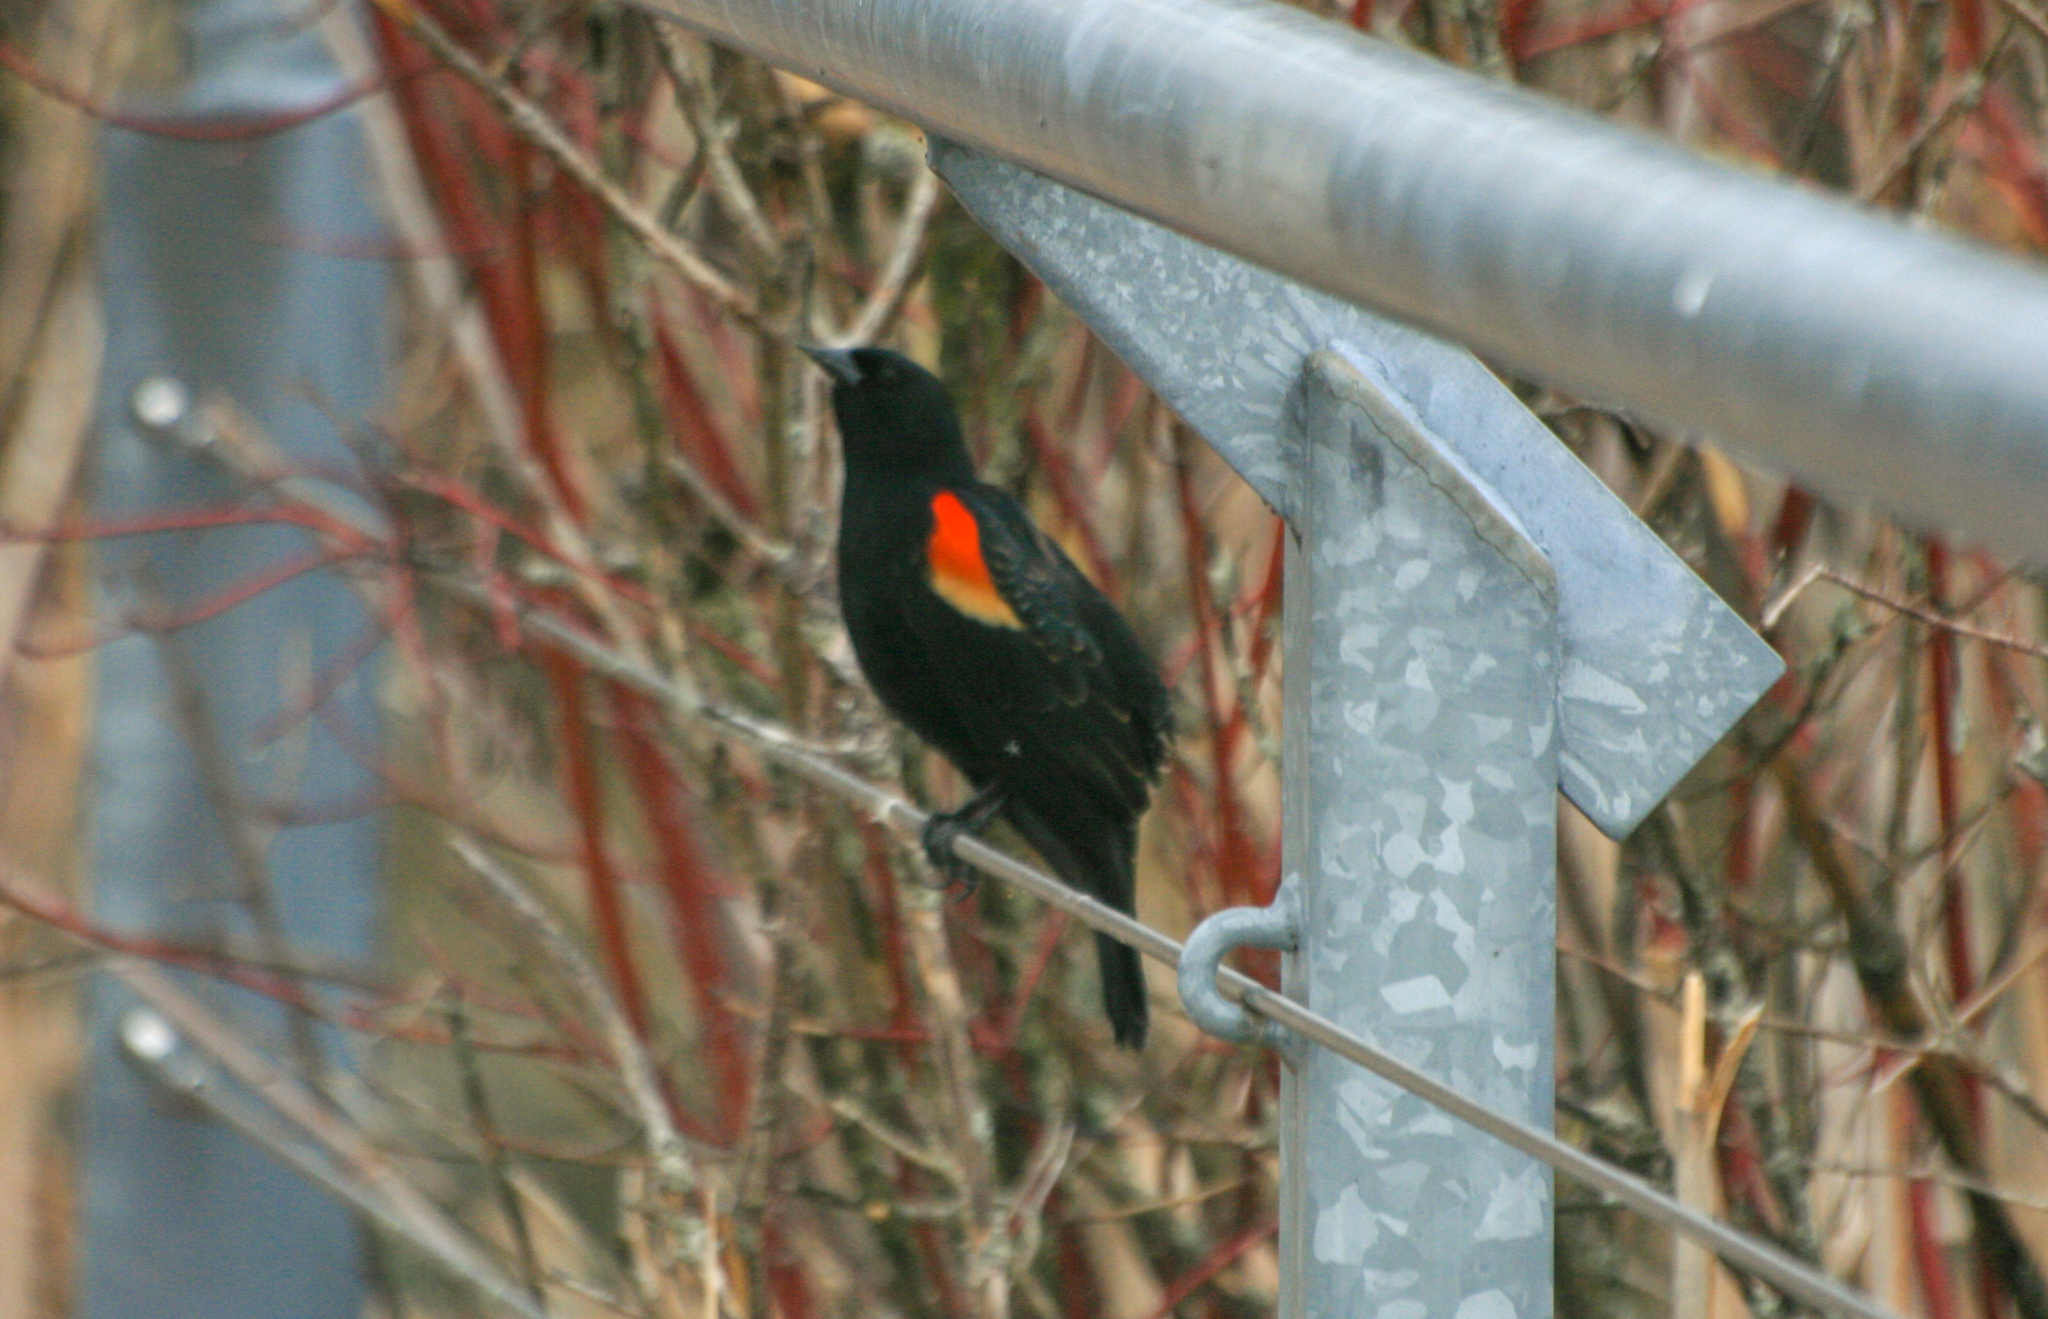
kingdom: Animalia
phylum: Chordata
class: Aves
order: Passeriformes
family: Icteridae
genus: Agelaius
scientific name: Agelaius phoeniceus
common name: Red-winged blackbird
